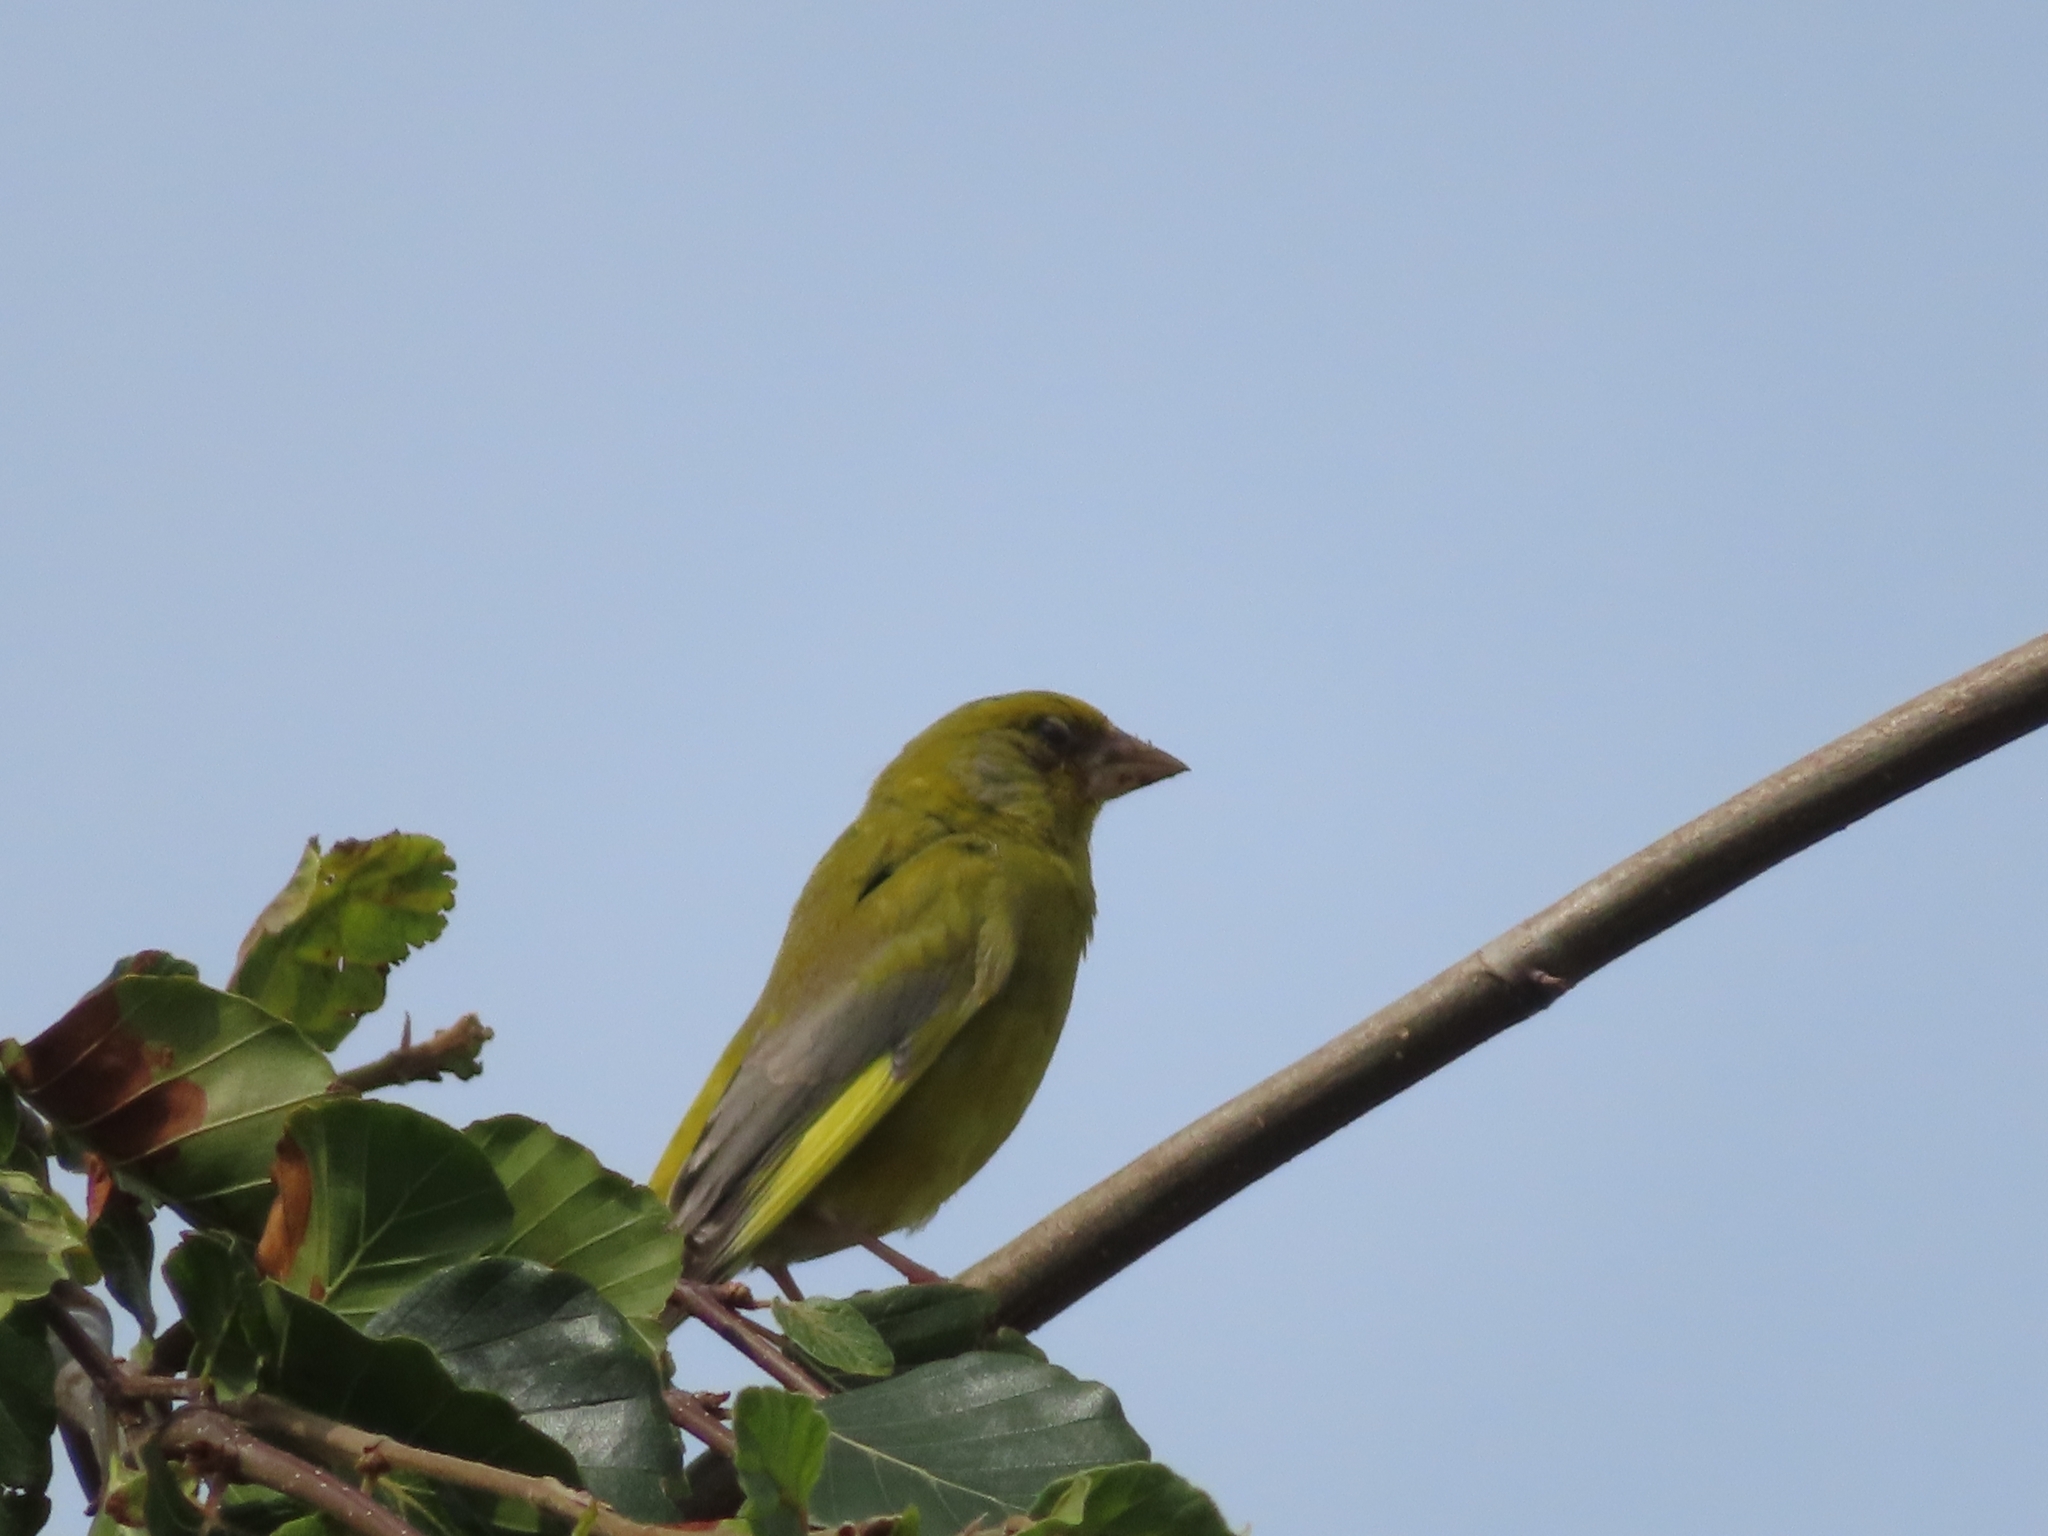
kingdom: Plantae
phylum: Tracheophyta
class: Liliopsida
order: Poales
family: Poaceae
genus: Chloris
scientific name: Chloris chloris
